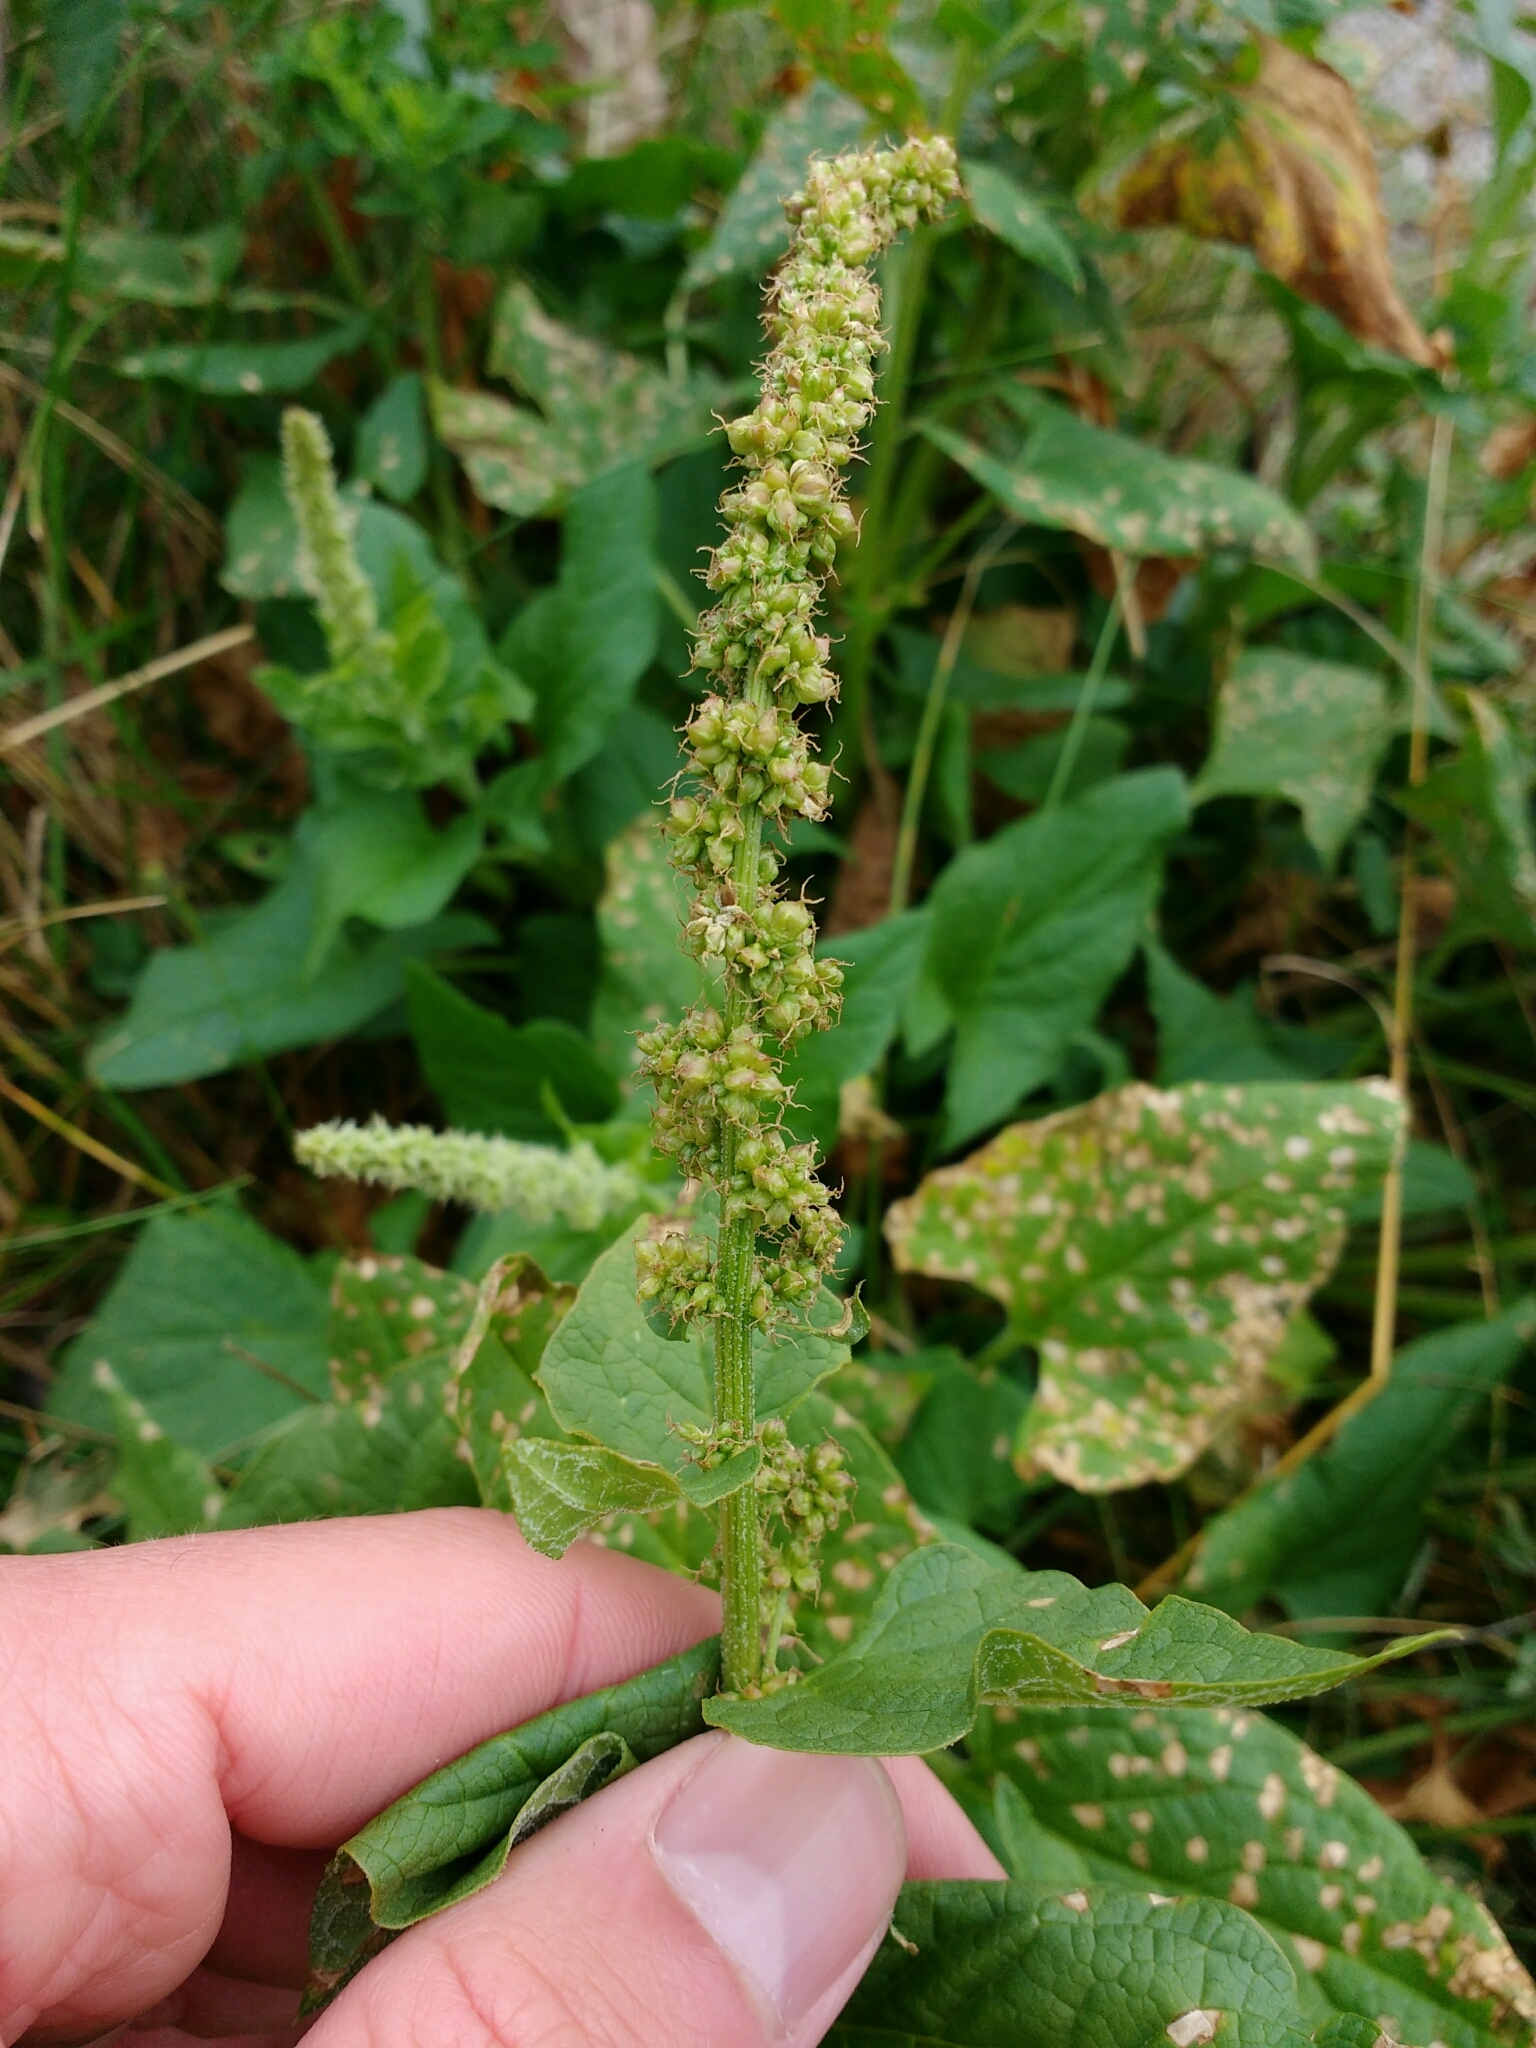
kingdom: Plantae
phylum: Tracheophyta
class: Magnoliopsida
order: Caryophyllales
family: Amaranthaceae
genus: Blitum
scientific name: Blitum bonus-henricus
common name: Good king henry
